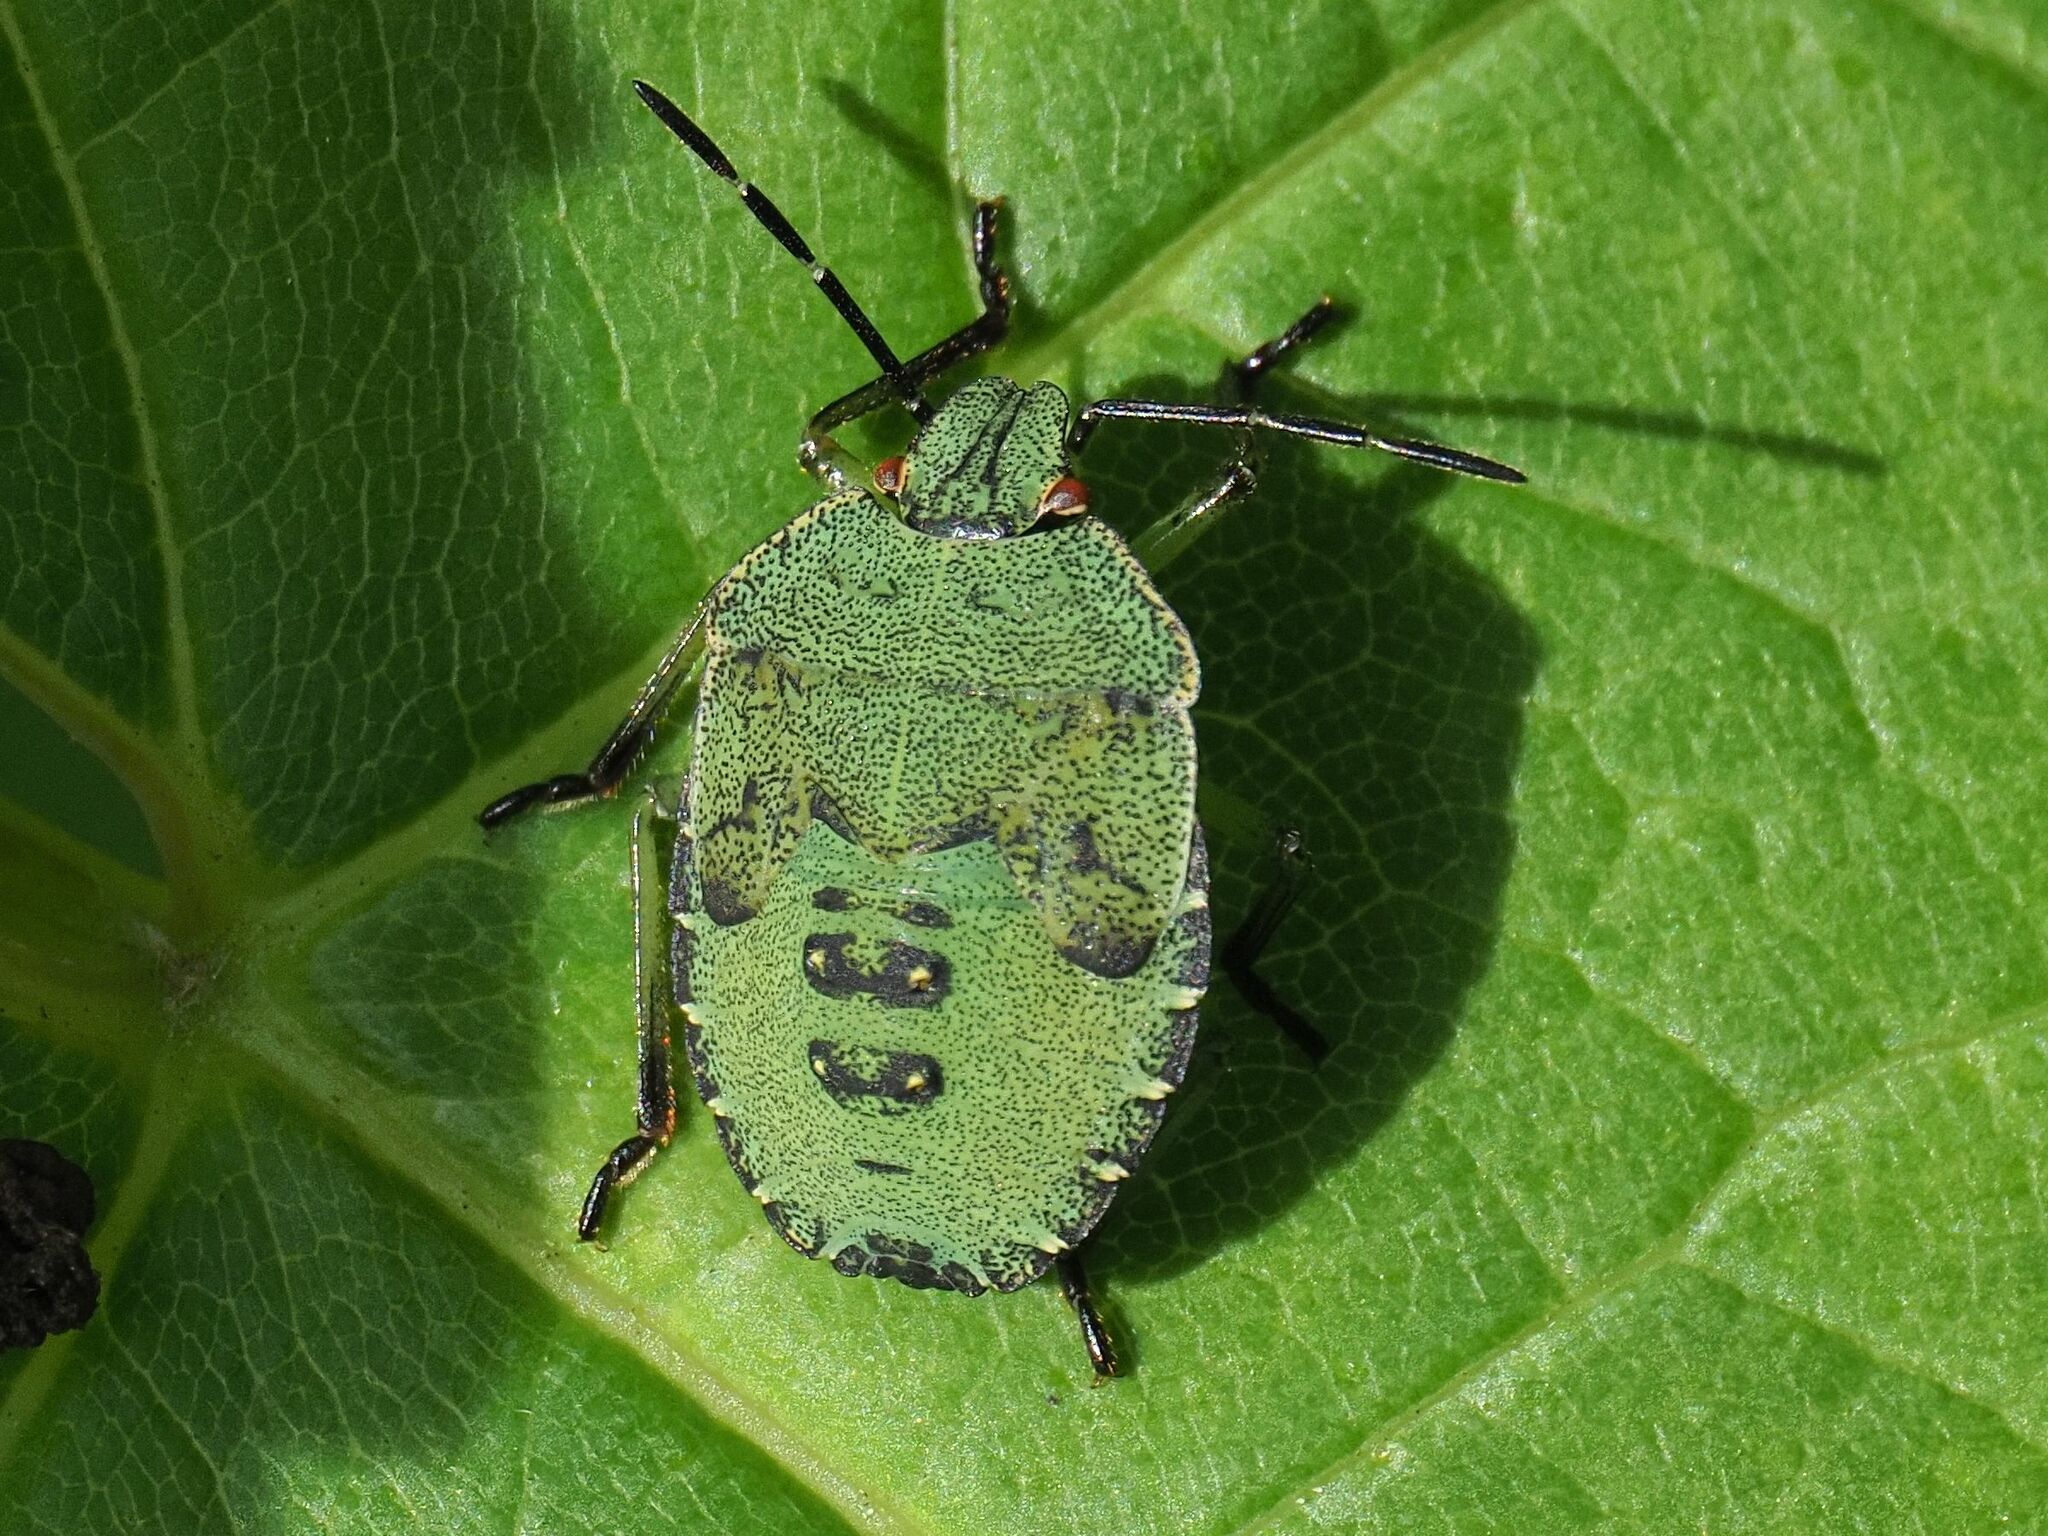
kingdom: Animalia
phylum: Arthropoda
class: Insecta
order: Hemiptera
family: Pentatomidae
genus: Palomena
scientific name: Palomena prasina
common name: Green shieldbug
